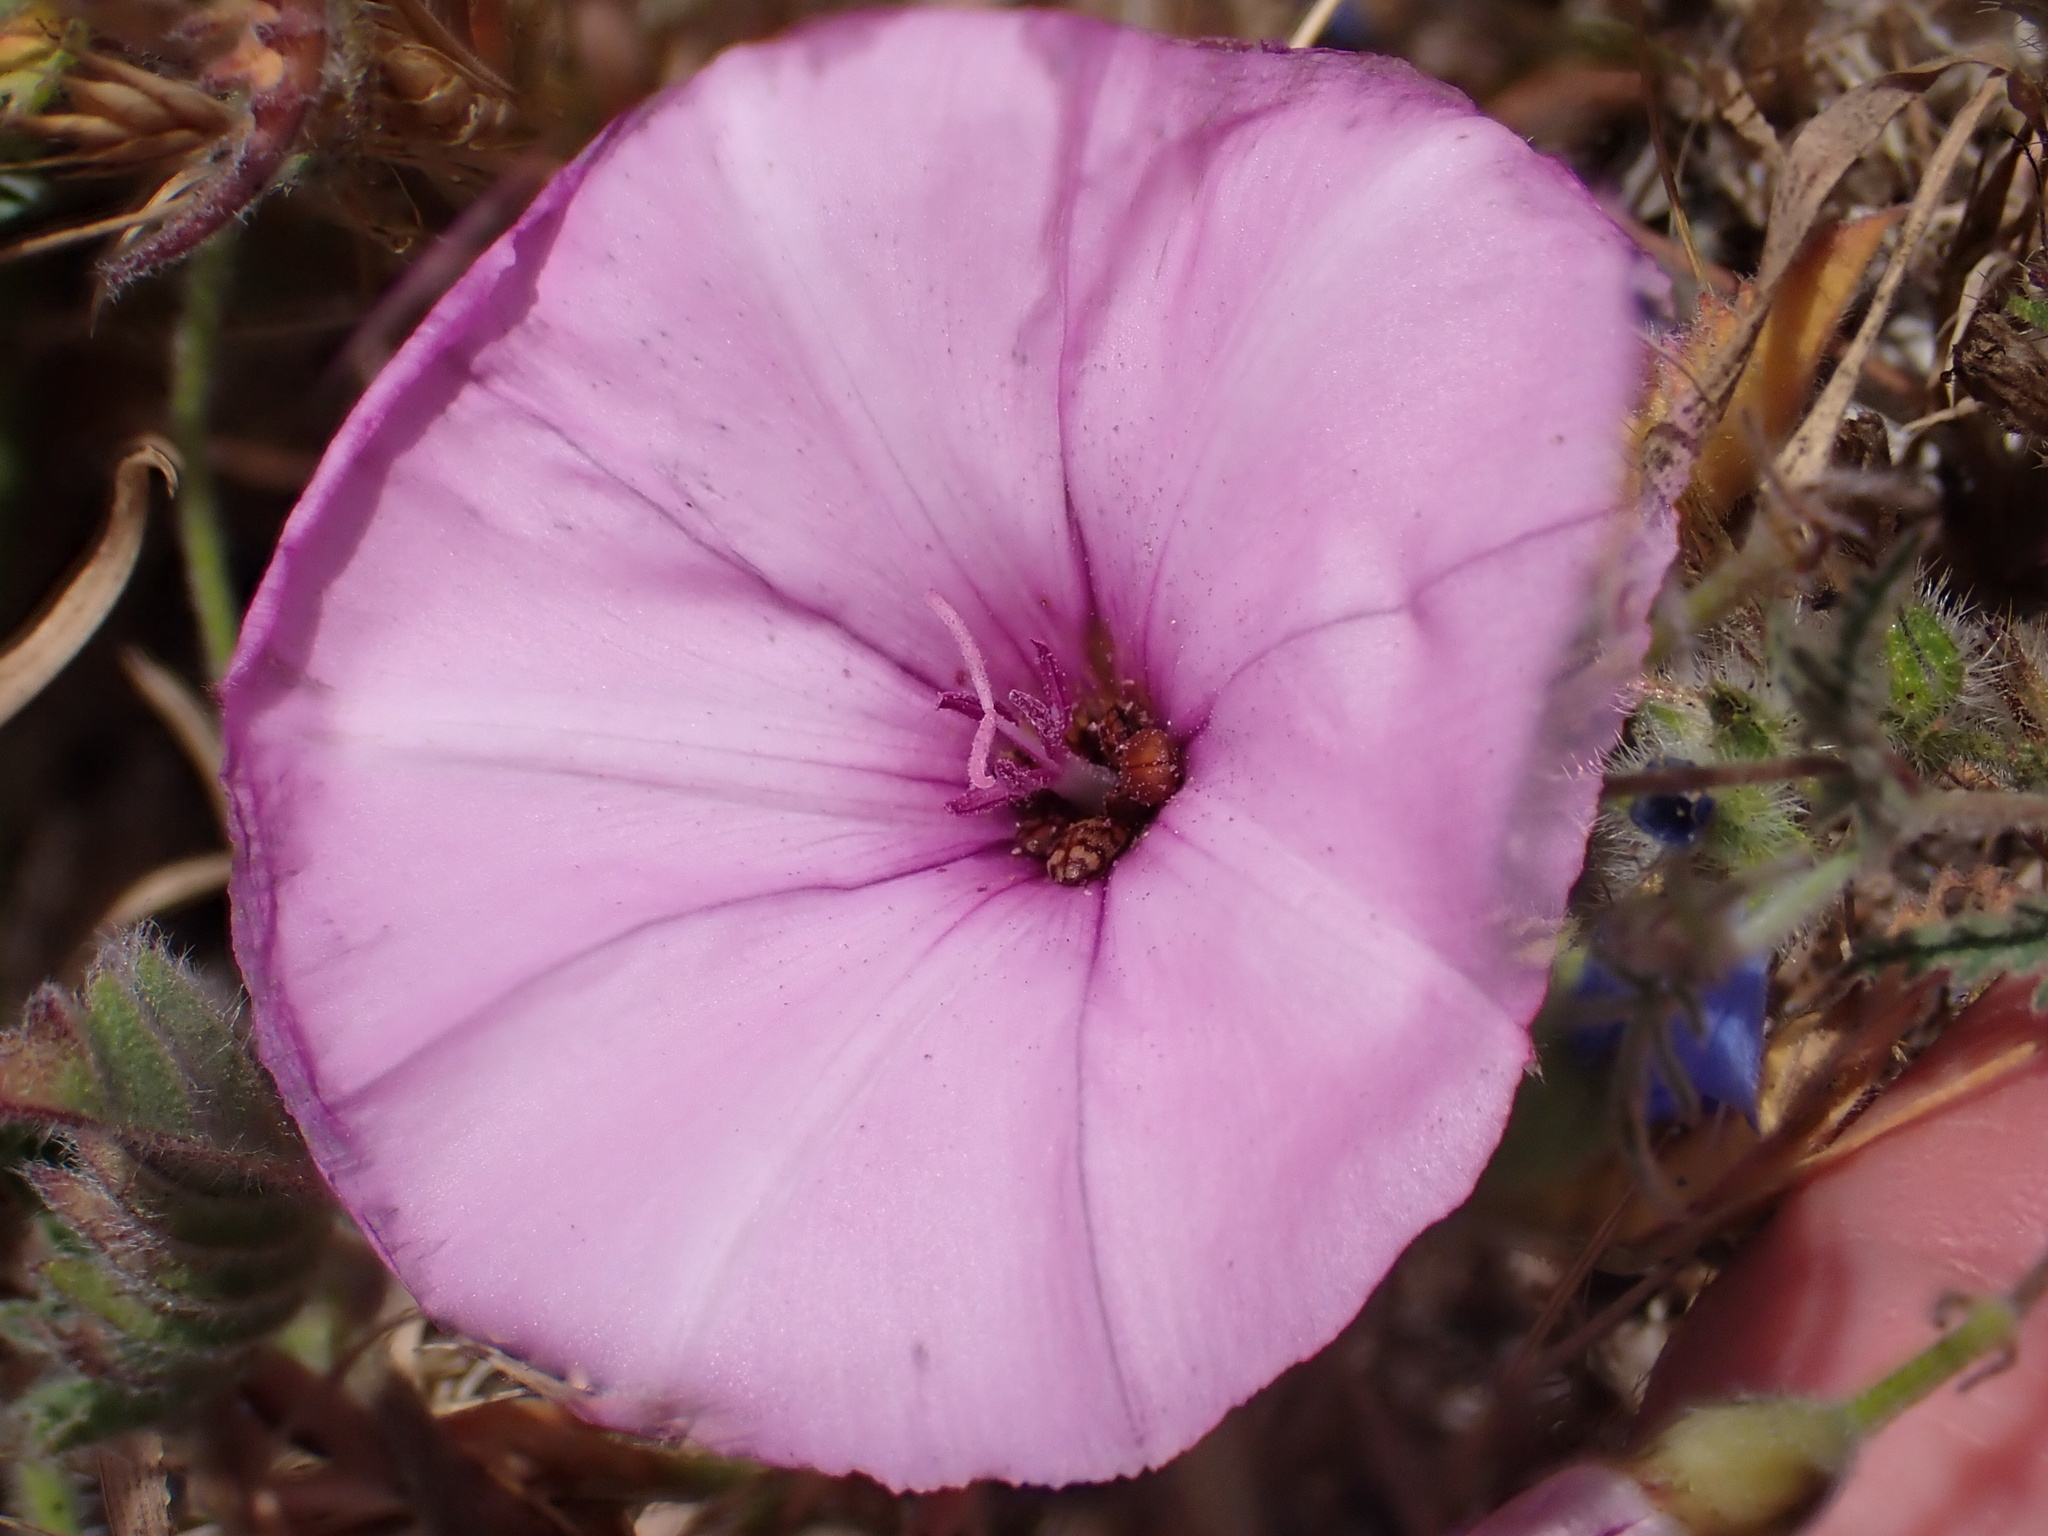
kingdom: Plantae
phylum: Tracheophyta
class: Magnoliopsida
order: Solanales
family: Convolvulaceae
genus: Convolvulus
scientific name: Convolvulus althaeoides
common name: Mallow bindweed
